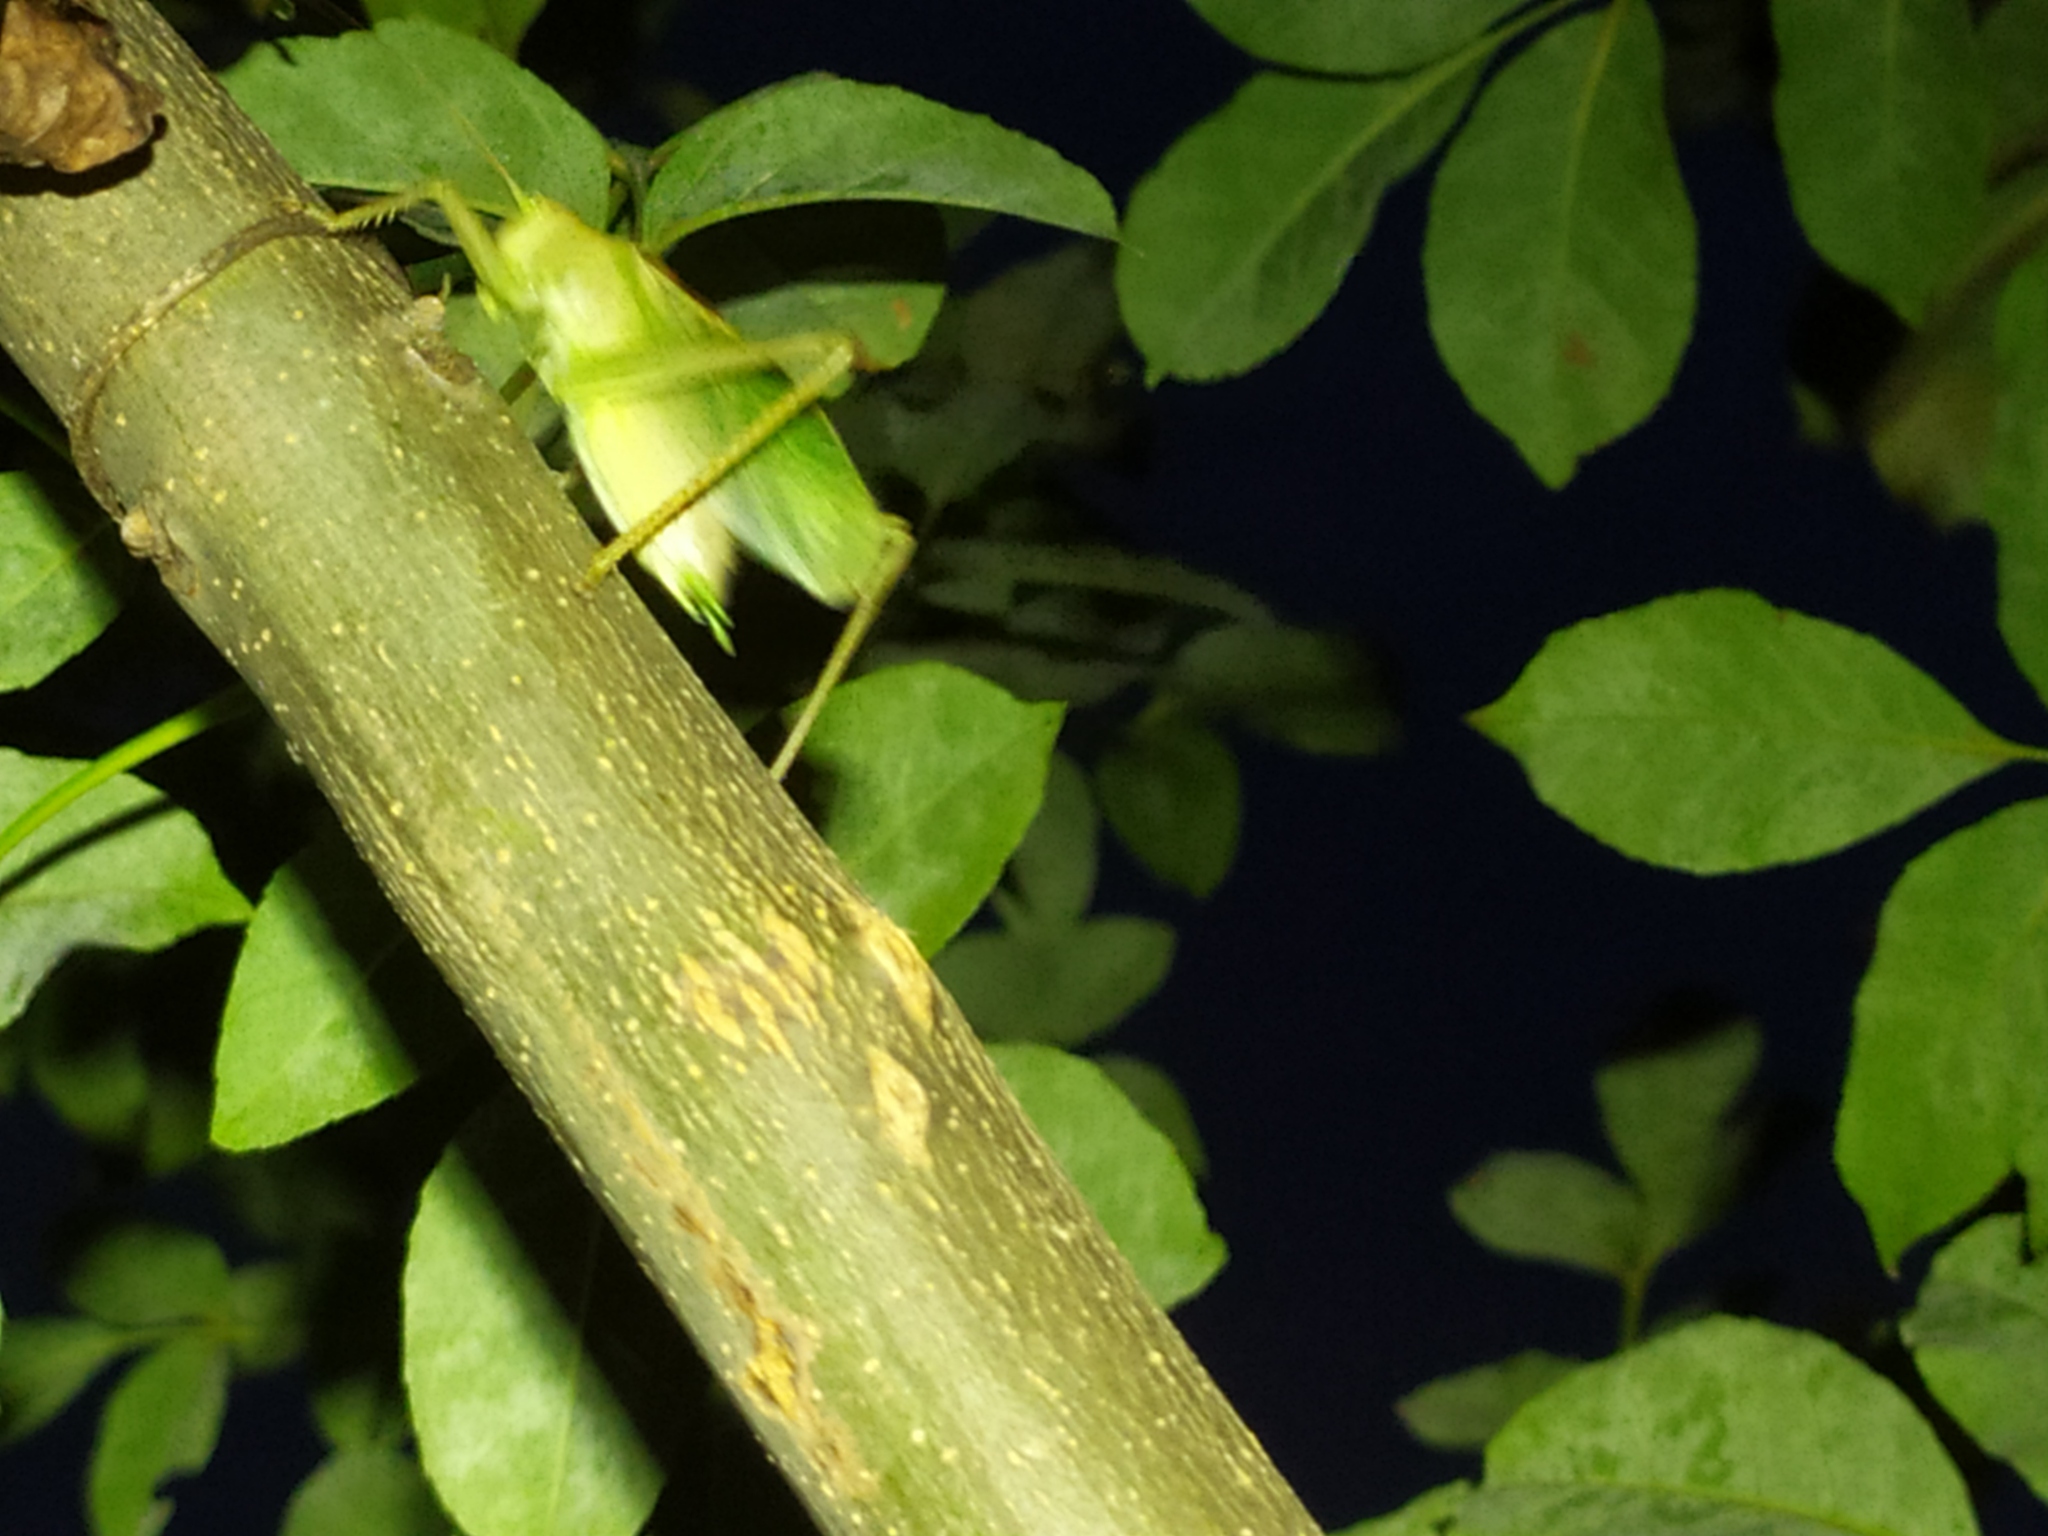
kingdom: Animalia
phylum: Arthropoda
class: Insecta
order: Orthoptera
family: Tettigoniidae
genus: Tettigonia
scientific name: Tettigonia cantans
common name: Upland green bush-cricket
